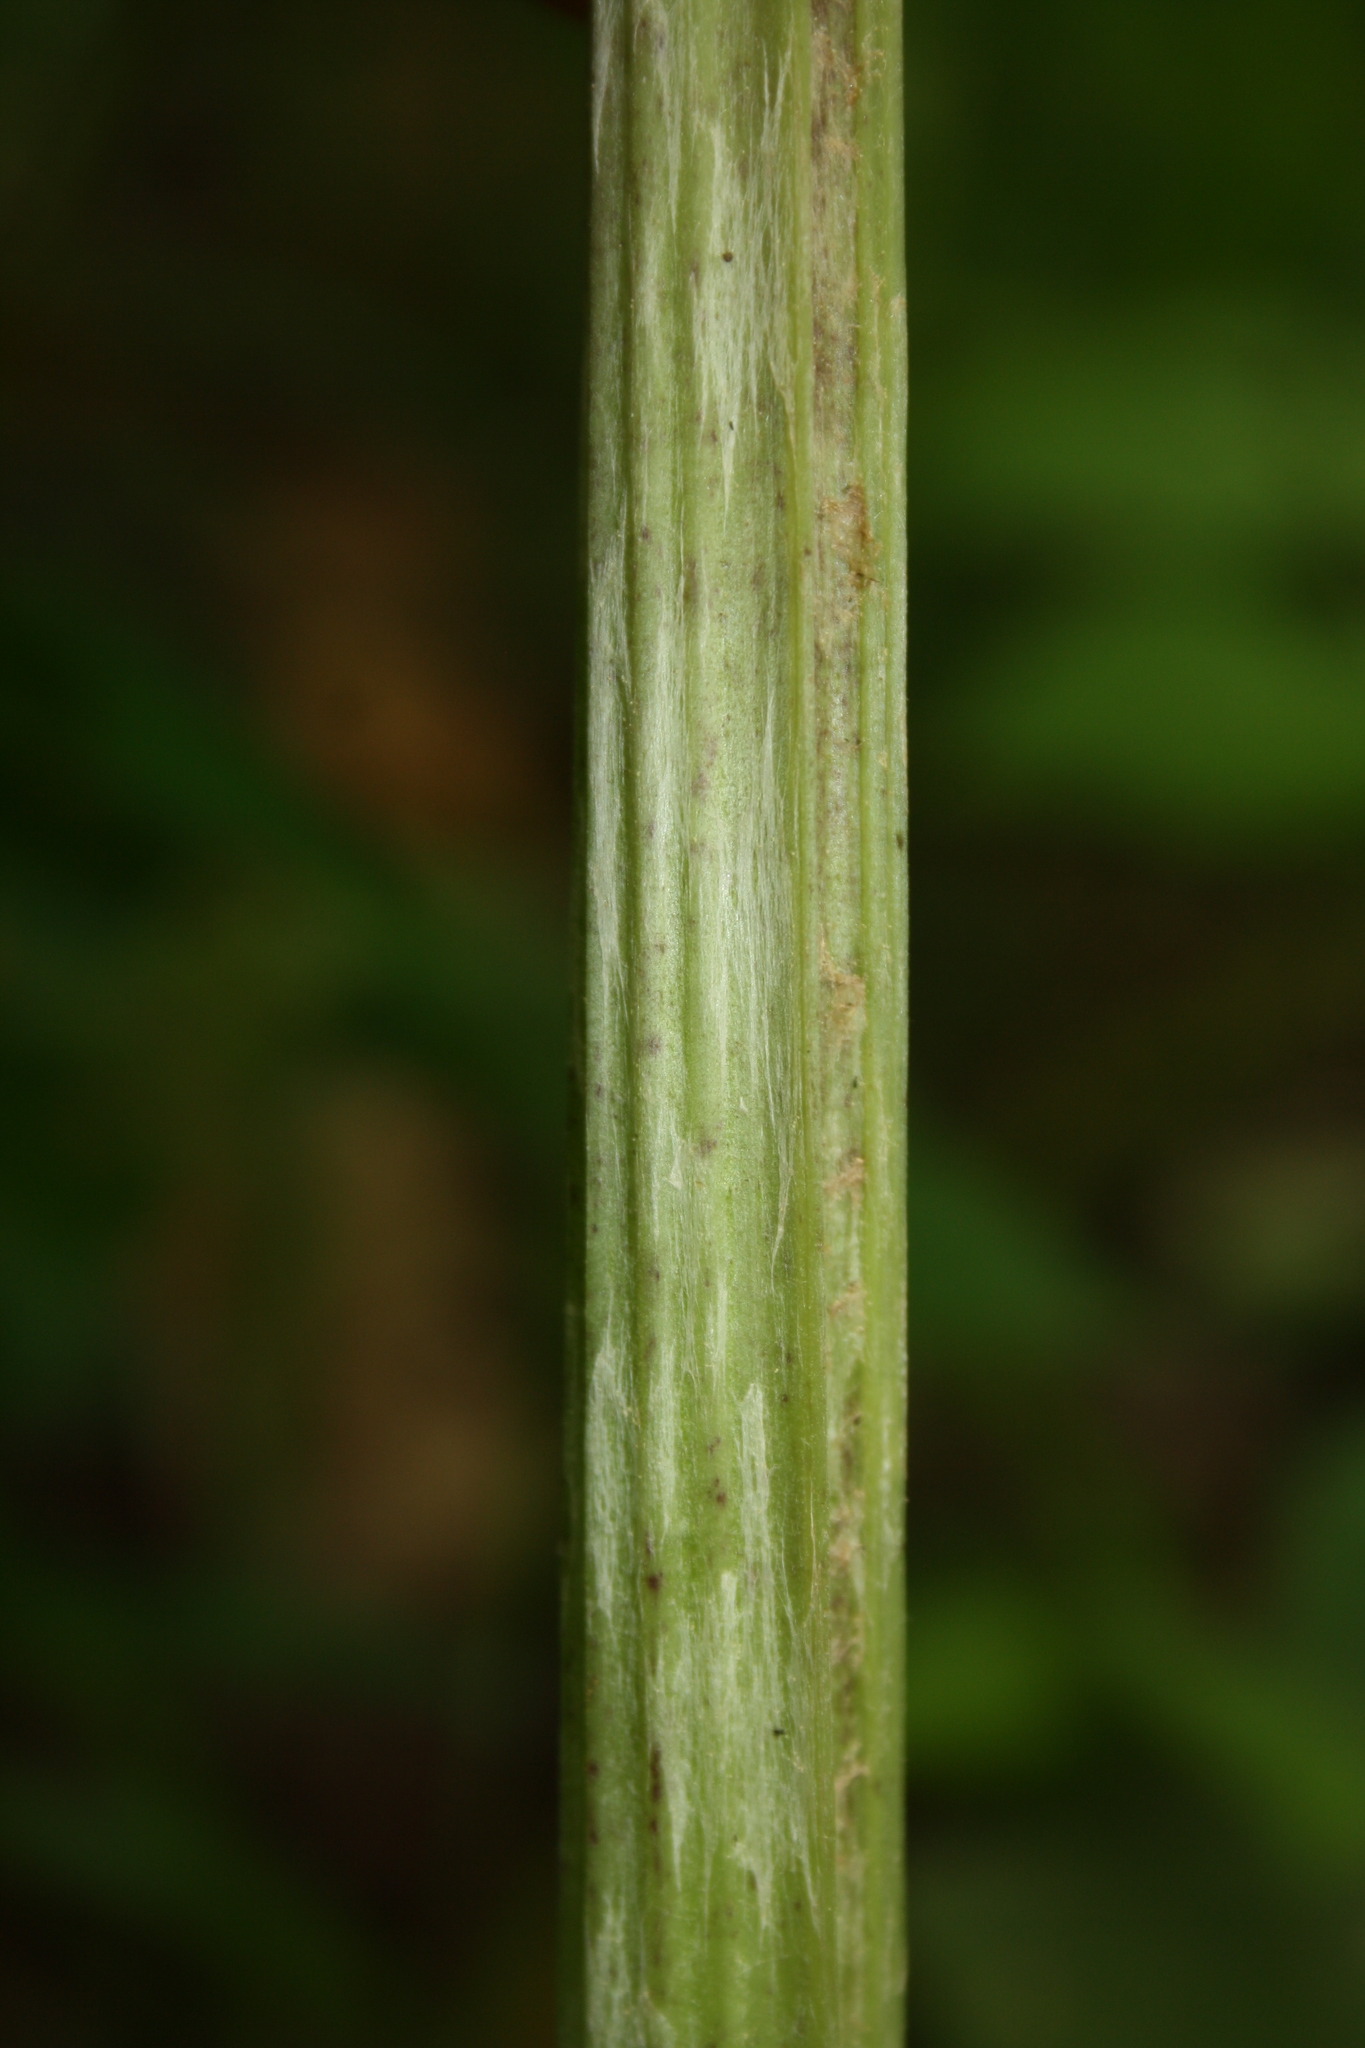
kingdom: Plantae
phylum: Tracheophyta
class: Magnoliopsida
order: Asterales
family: Asteraceae
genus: Petasites
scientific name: Petasites hybridus
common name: Butterbur
